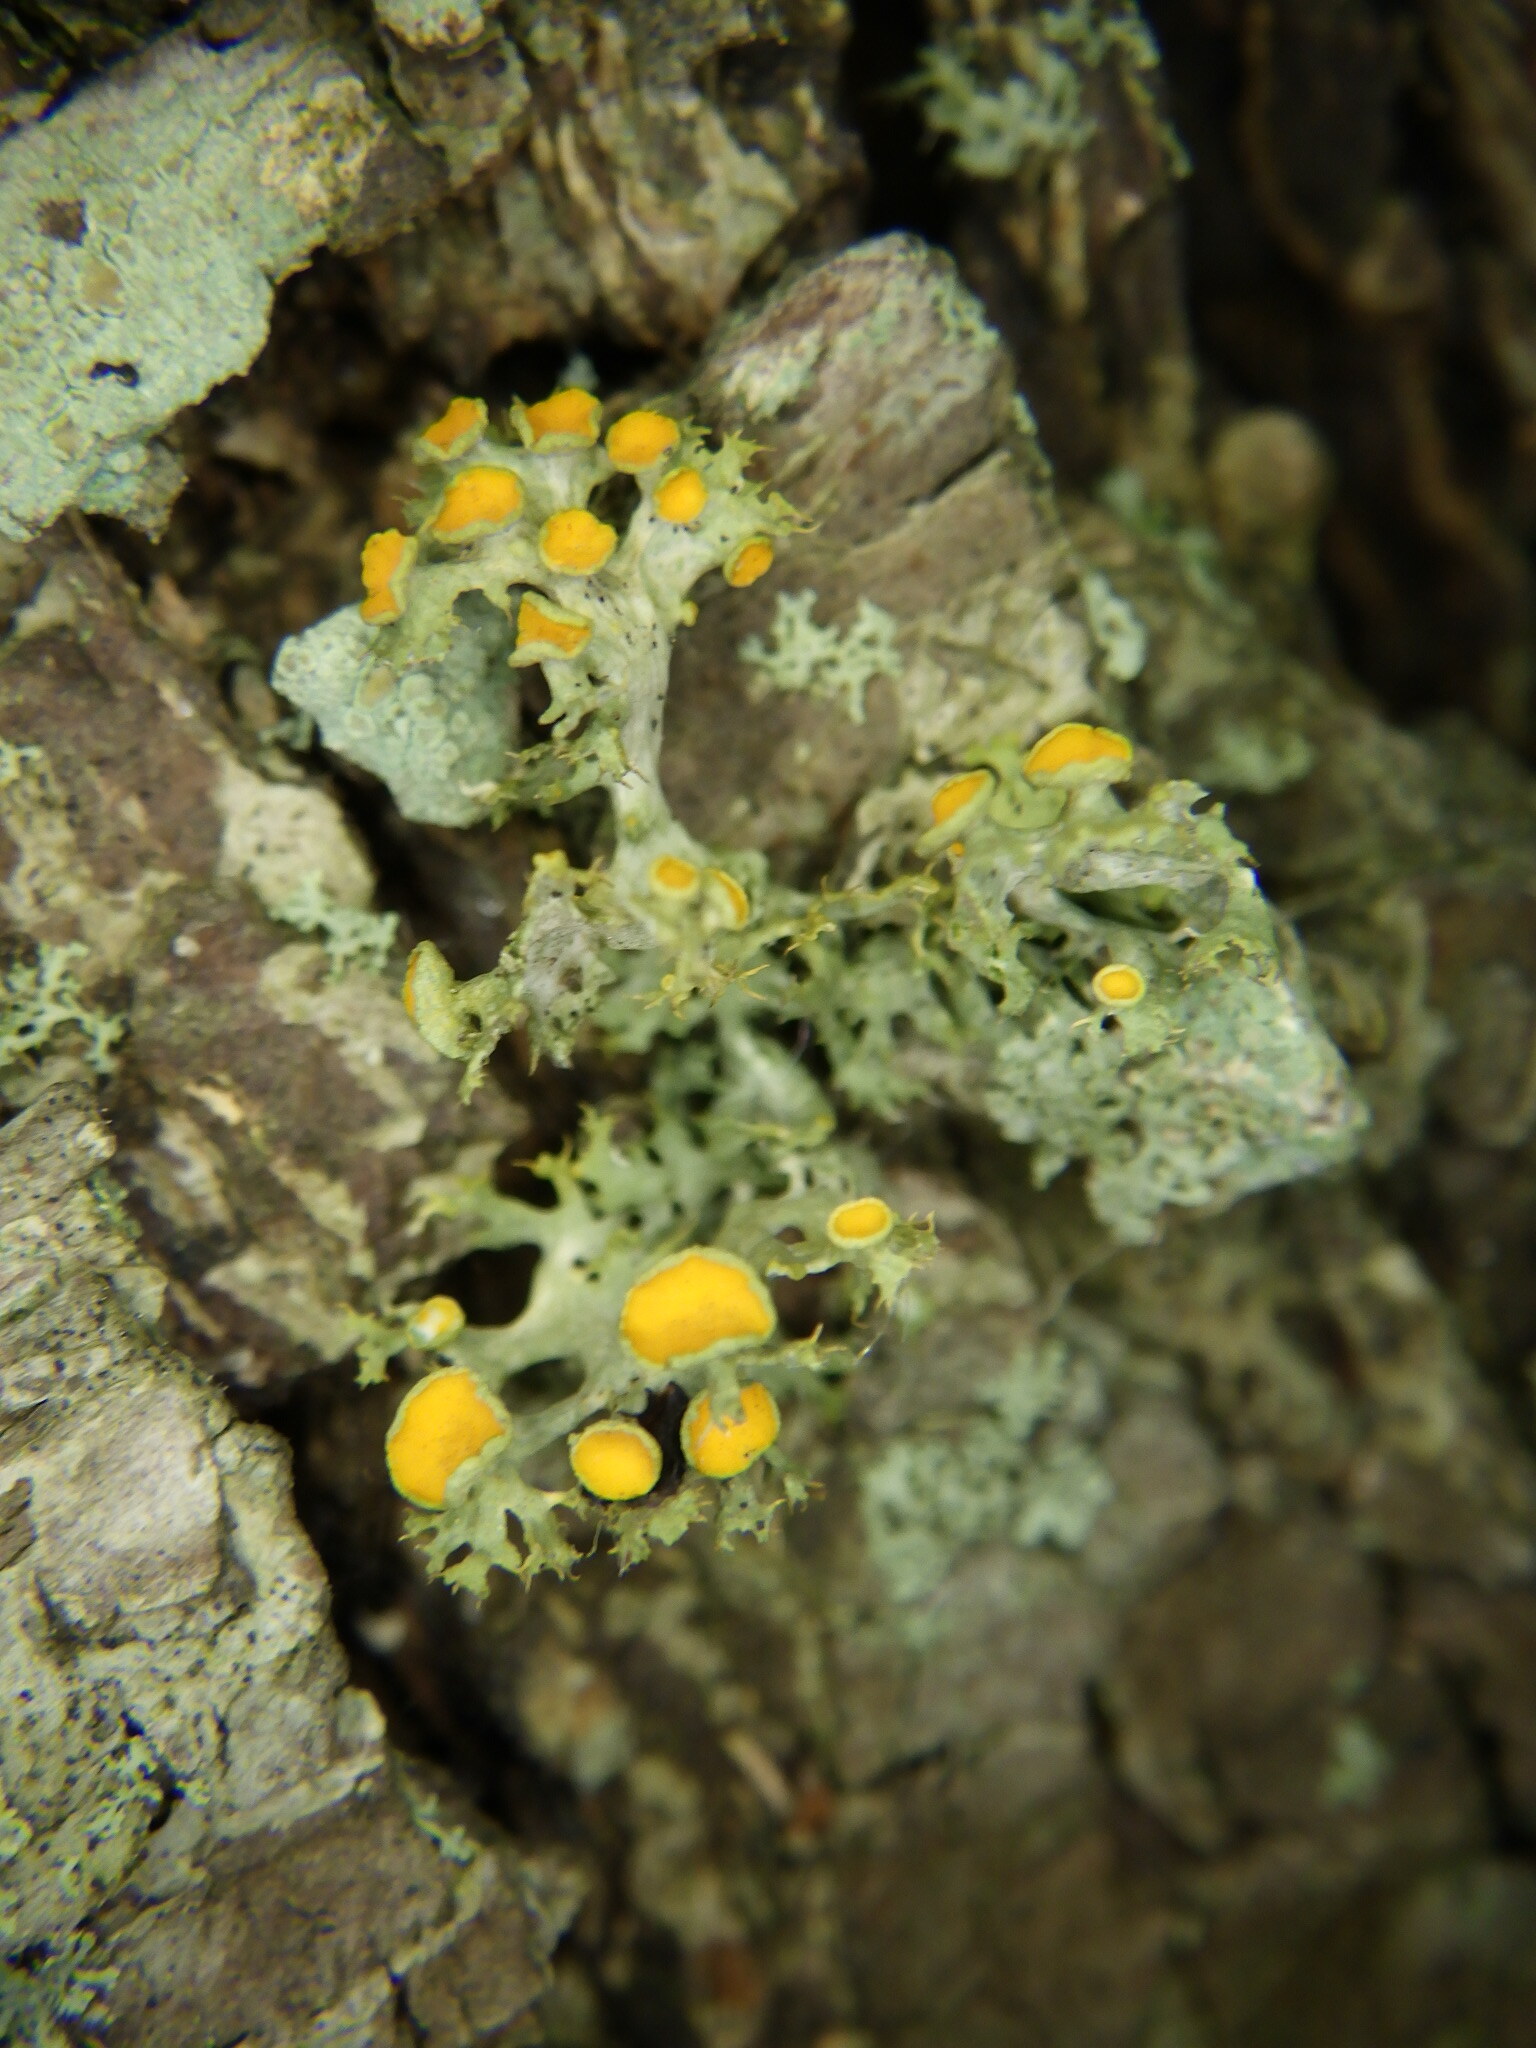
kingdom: Fungi
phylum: Ascomycota
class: Lecanoromycetes
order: Teloschistales
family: Teloschistaceae
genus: Niorma
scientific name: Niorma chrysophthalma
